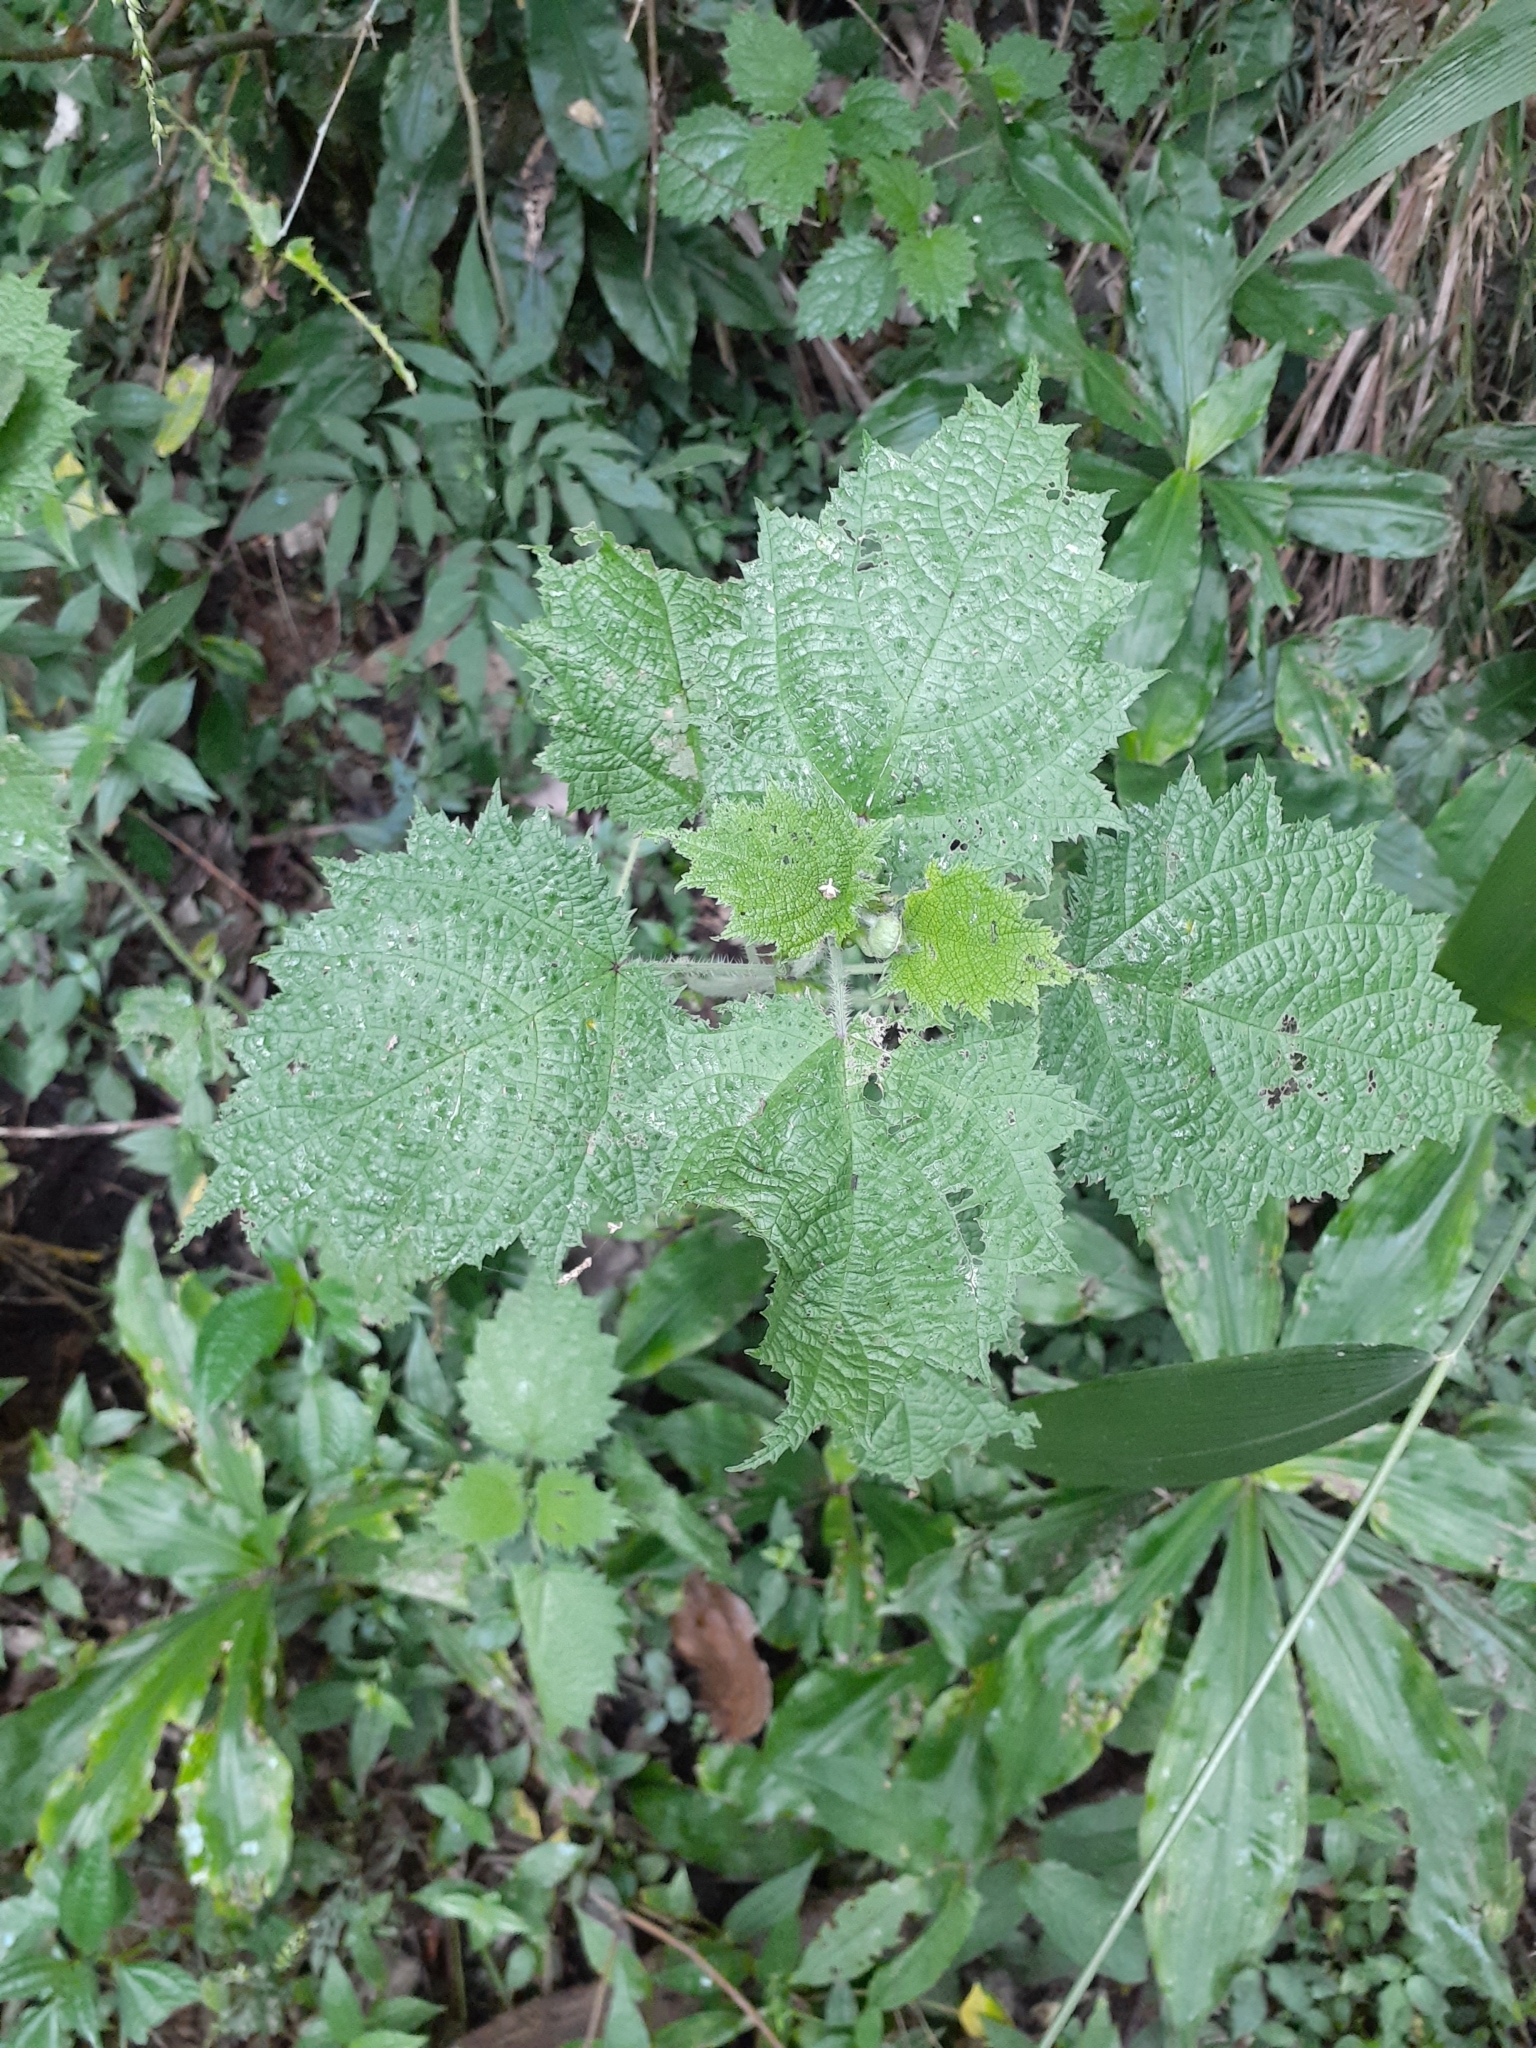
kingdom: Plantae
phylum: Tracheophyta
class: Magnoliopsida
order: Rosales
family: Urticaceae
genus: Urtica
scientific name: Urtica thunbergiana
